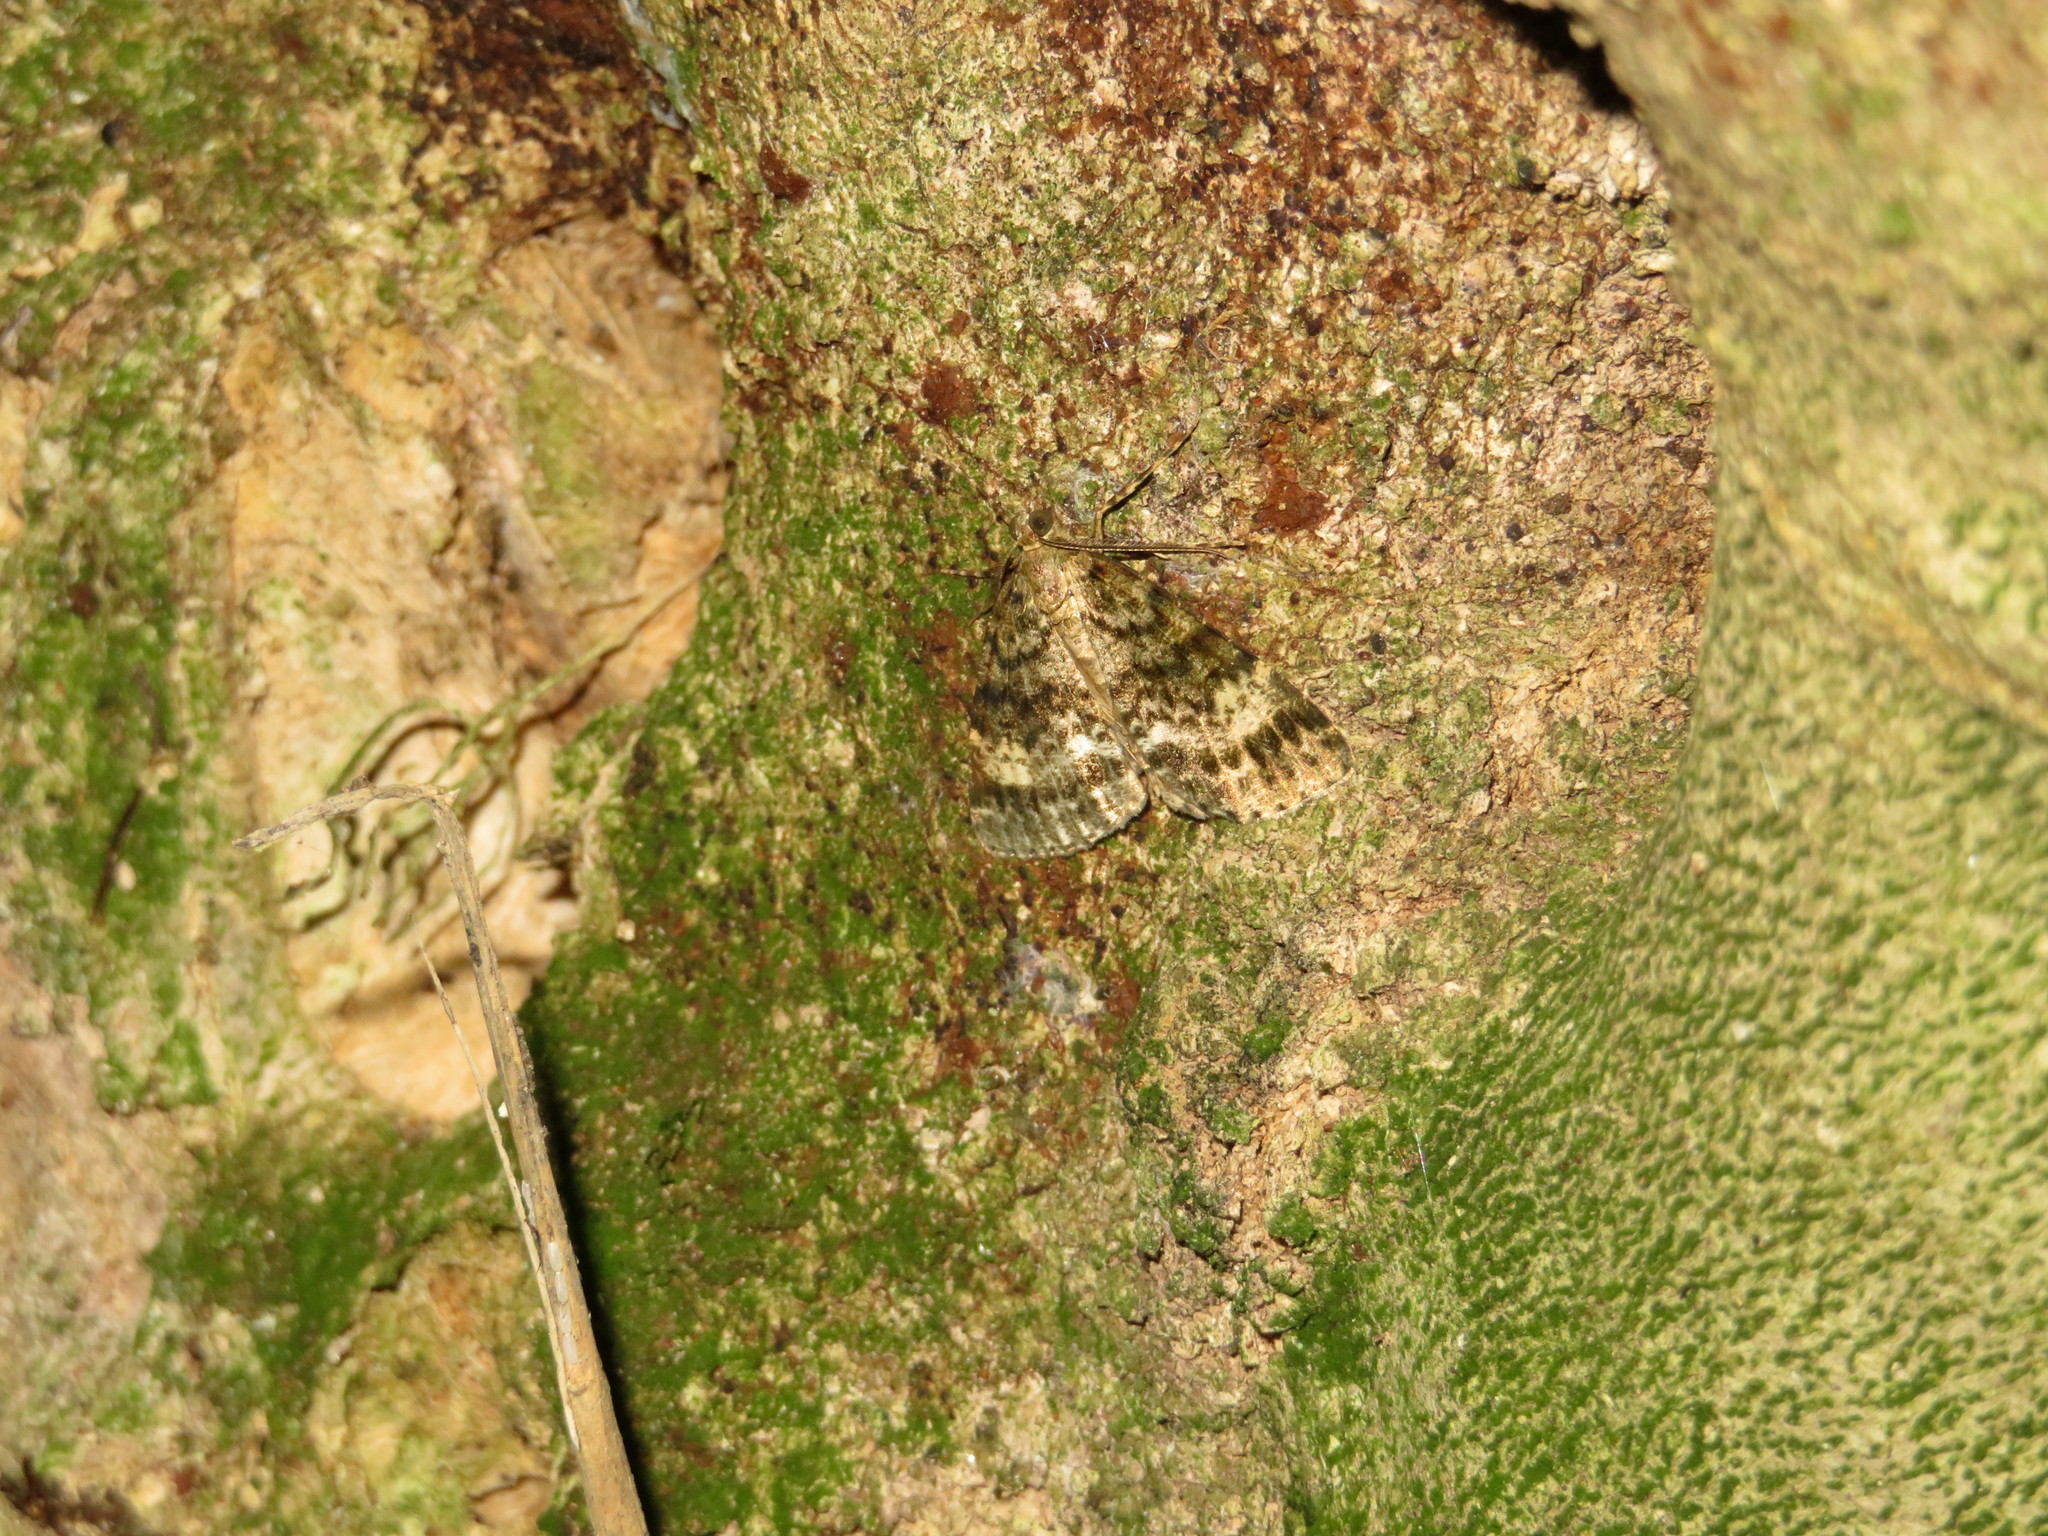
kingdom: Animalia
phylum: Arthropoda
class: Insecta
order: Lepidoptera
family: Geometridae
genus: Pseudocoremia
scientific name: Pseudocoremia indistincta
